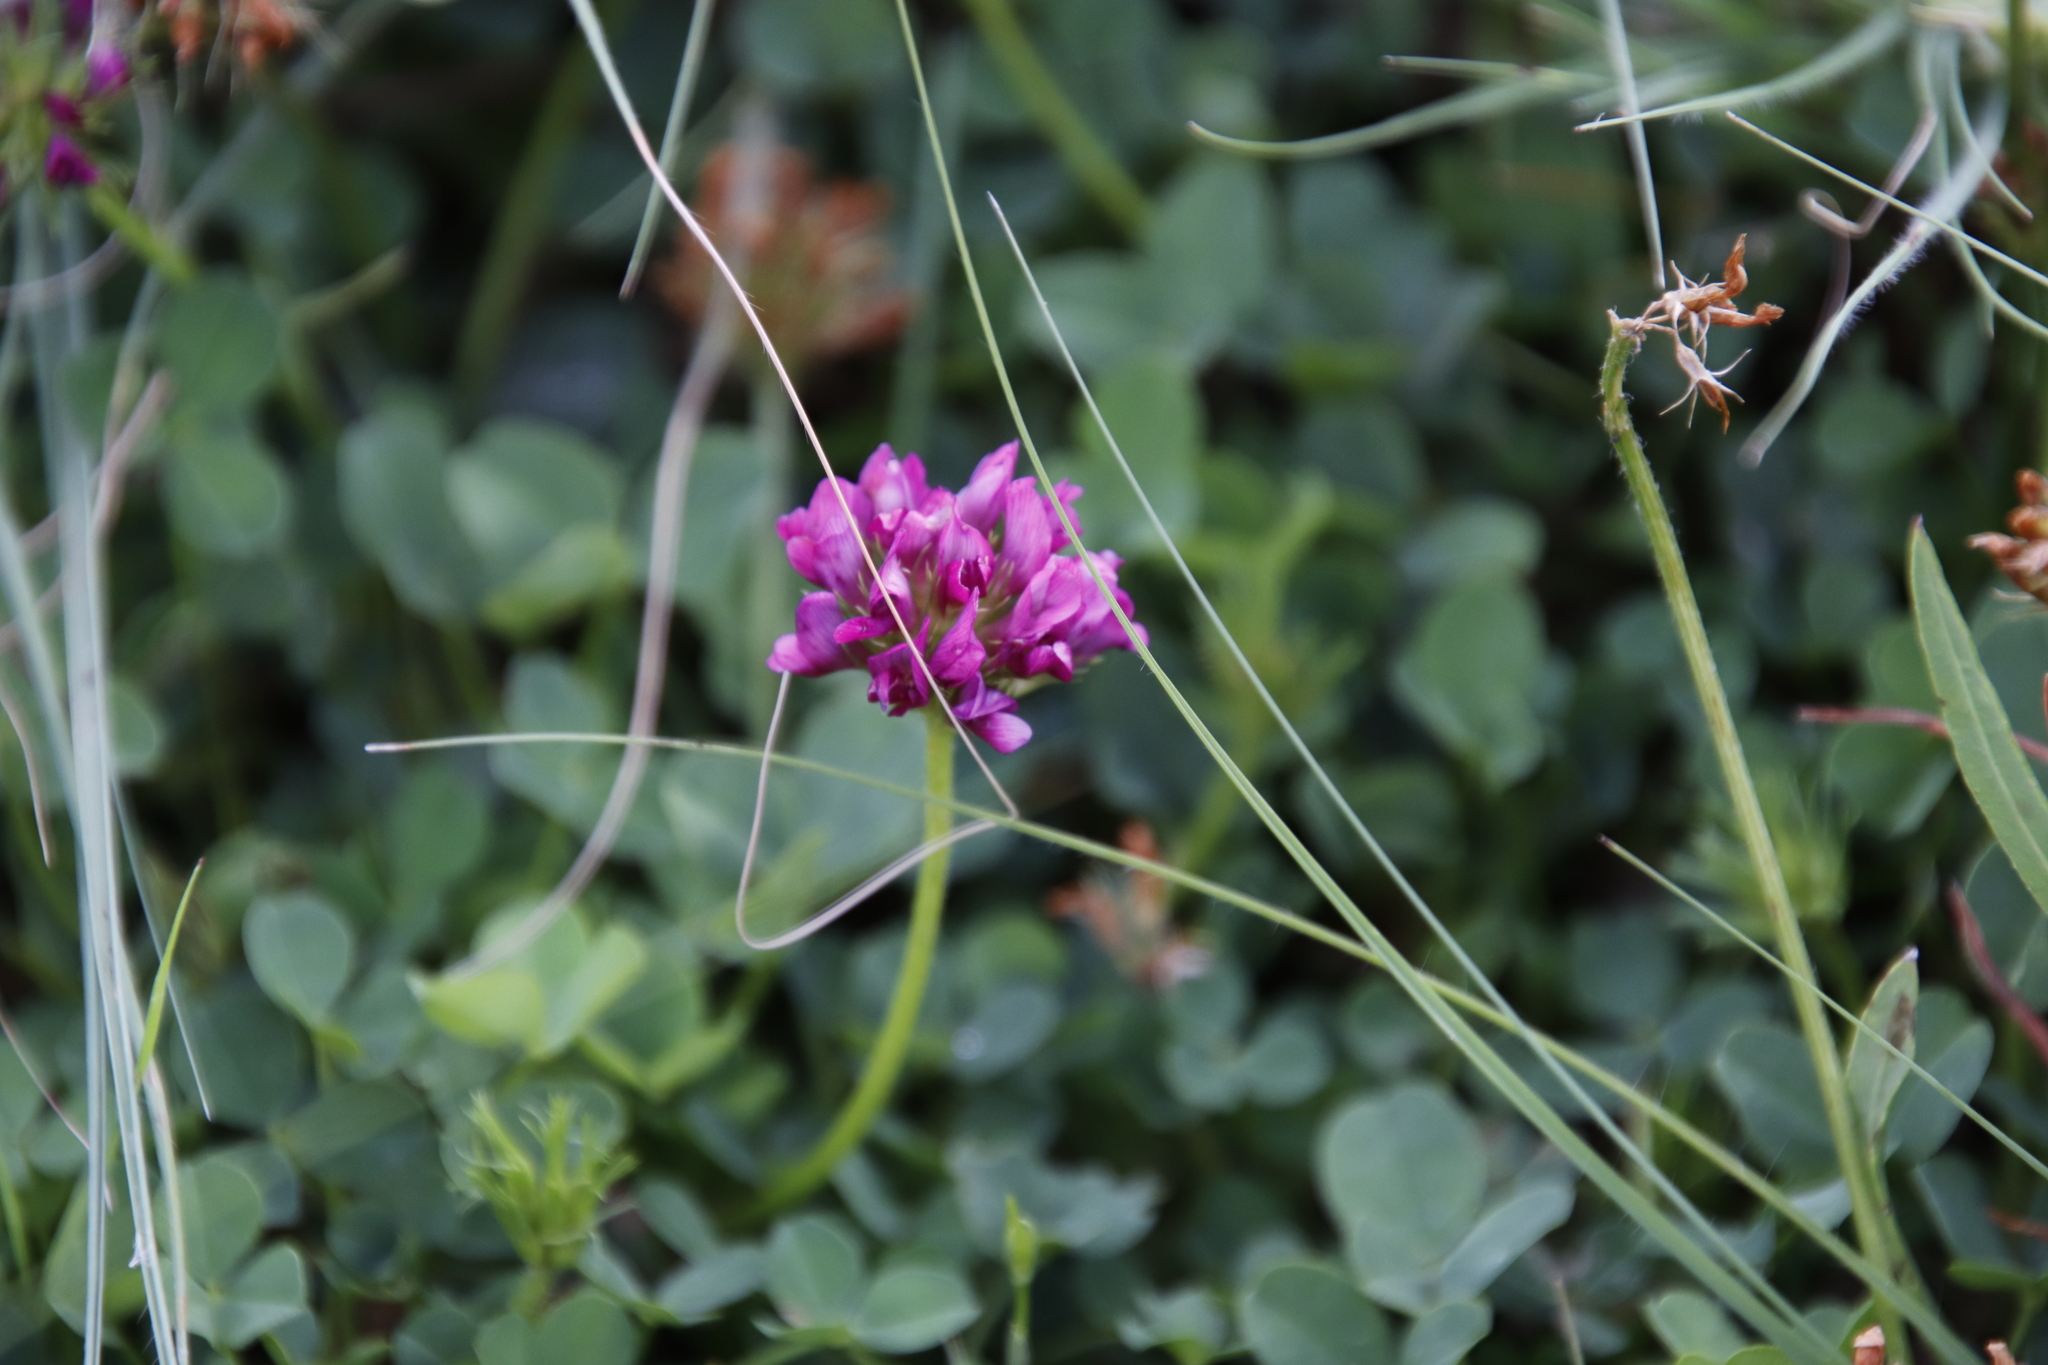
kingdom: Plantae
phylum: Tracheophyta
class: Magnoliopsida
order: Fabales
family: Fabaceae
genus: Trifolium
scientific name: Trifolium burchellianum
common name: Burchell's clover
